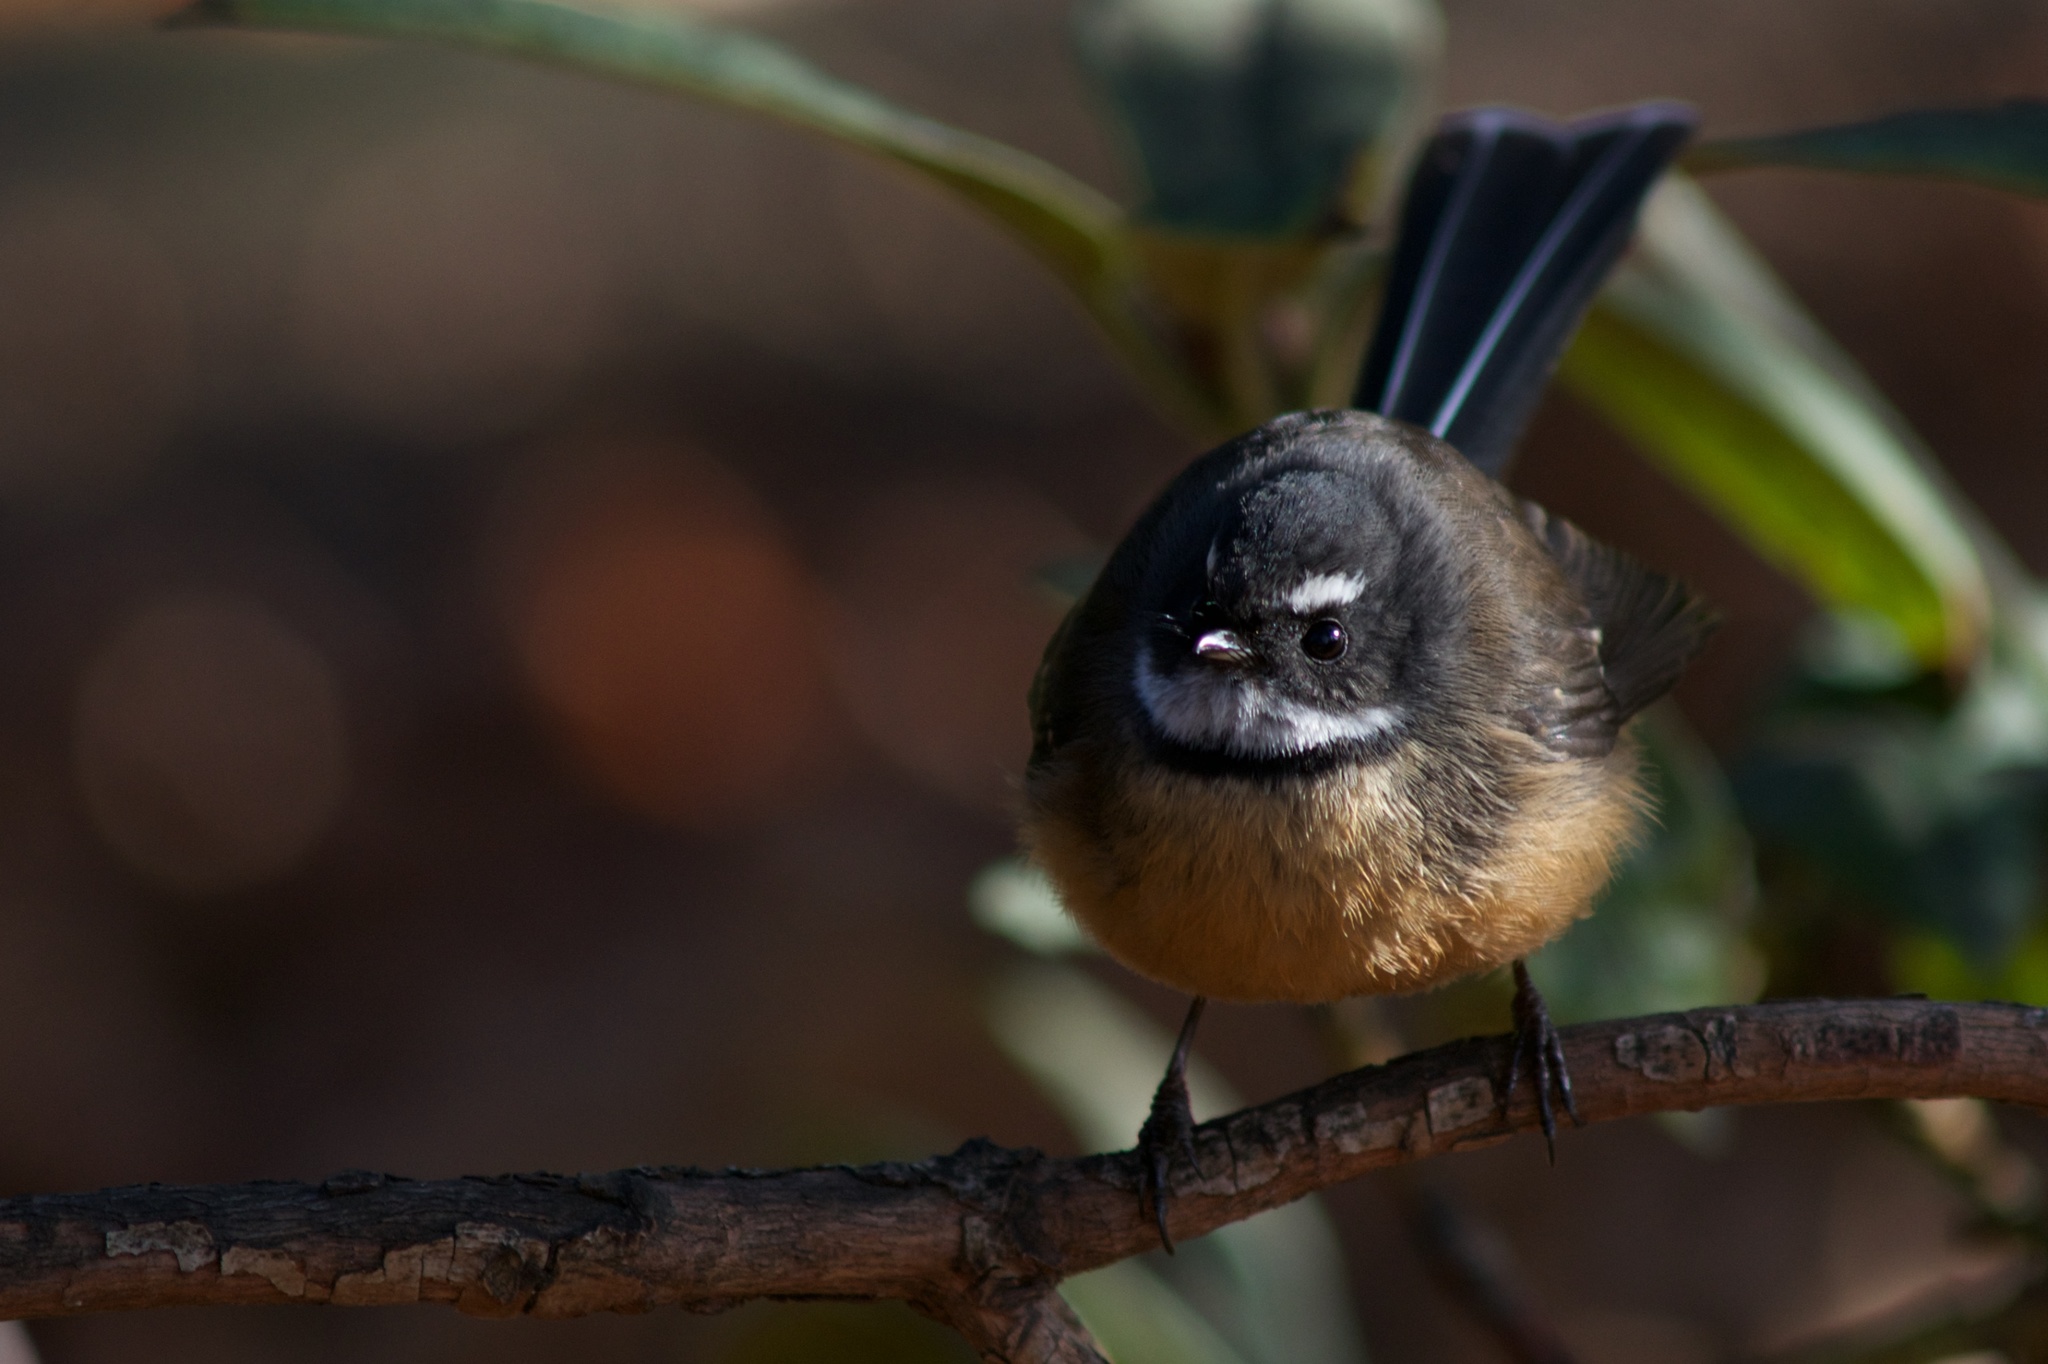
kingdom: Animalia
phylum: Chordata
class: Aves
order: Passeriformes
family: Rhipiduridae
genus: Rhipidura
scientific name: Rhipidura fuliginosa
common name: New zealand fantail
